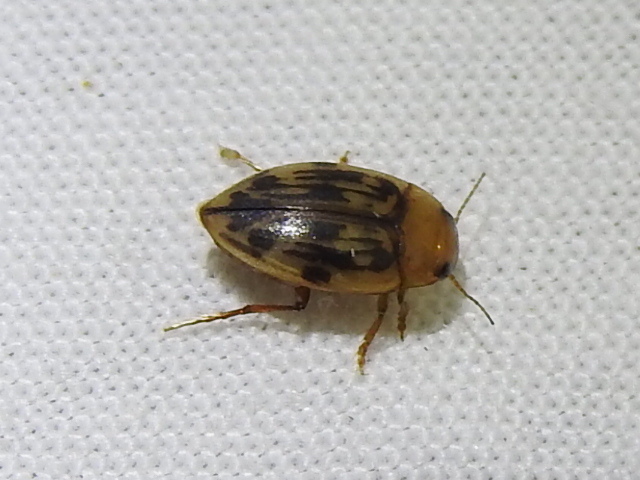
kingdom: Animalia
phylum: Arthropoda
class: Insecta
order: Coleoptera
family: Dytiscidae
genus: Neoporus
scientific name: Neoporus dimidiatus
